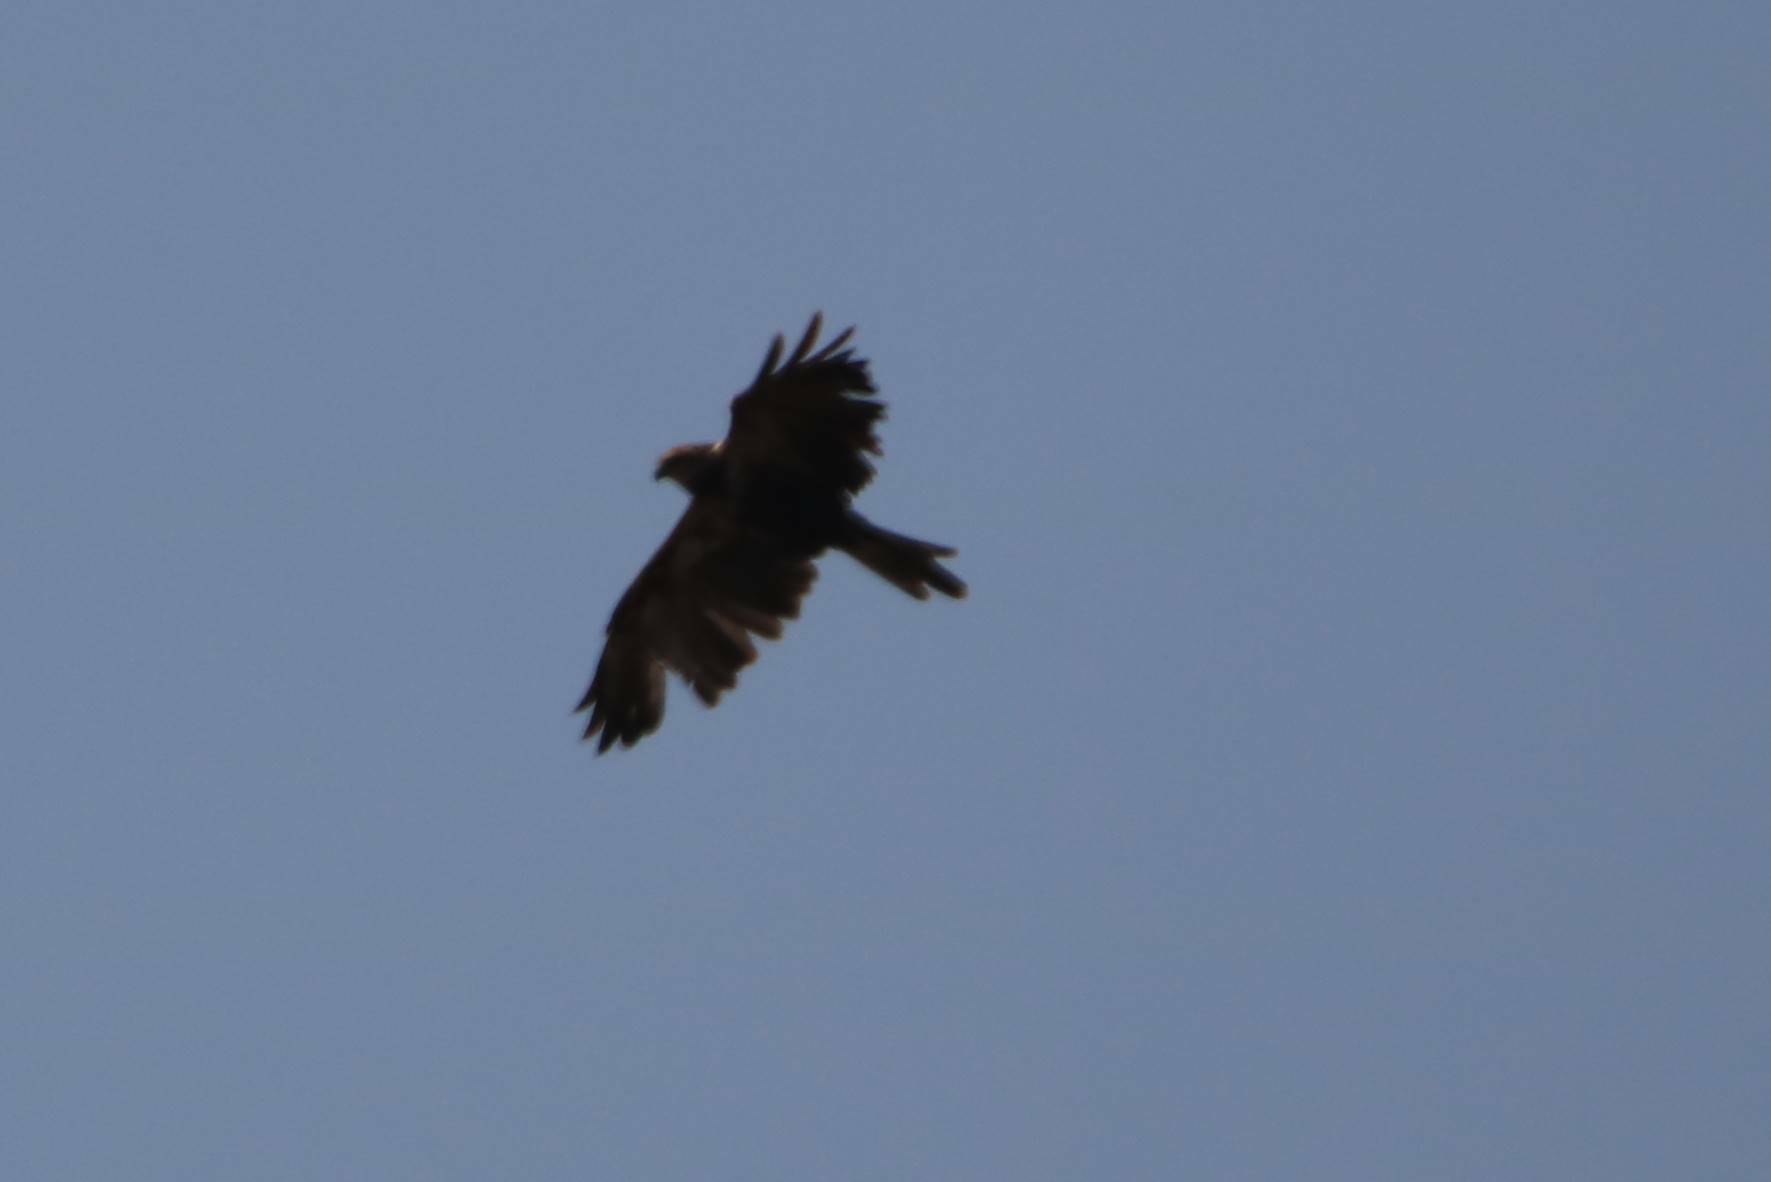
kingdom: Animalia
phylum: Chordata
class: Aves
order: Accipitriformes
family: Accipitridae
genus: Circus
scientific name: Circus aeruginosus
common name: Western marsh harrier
